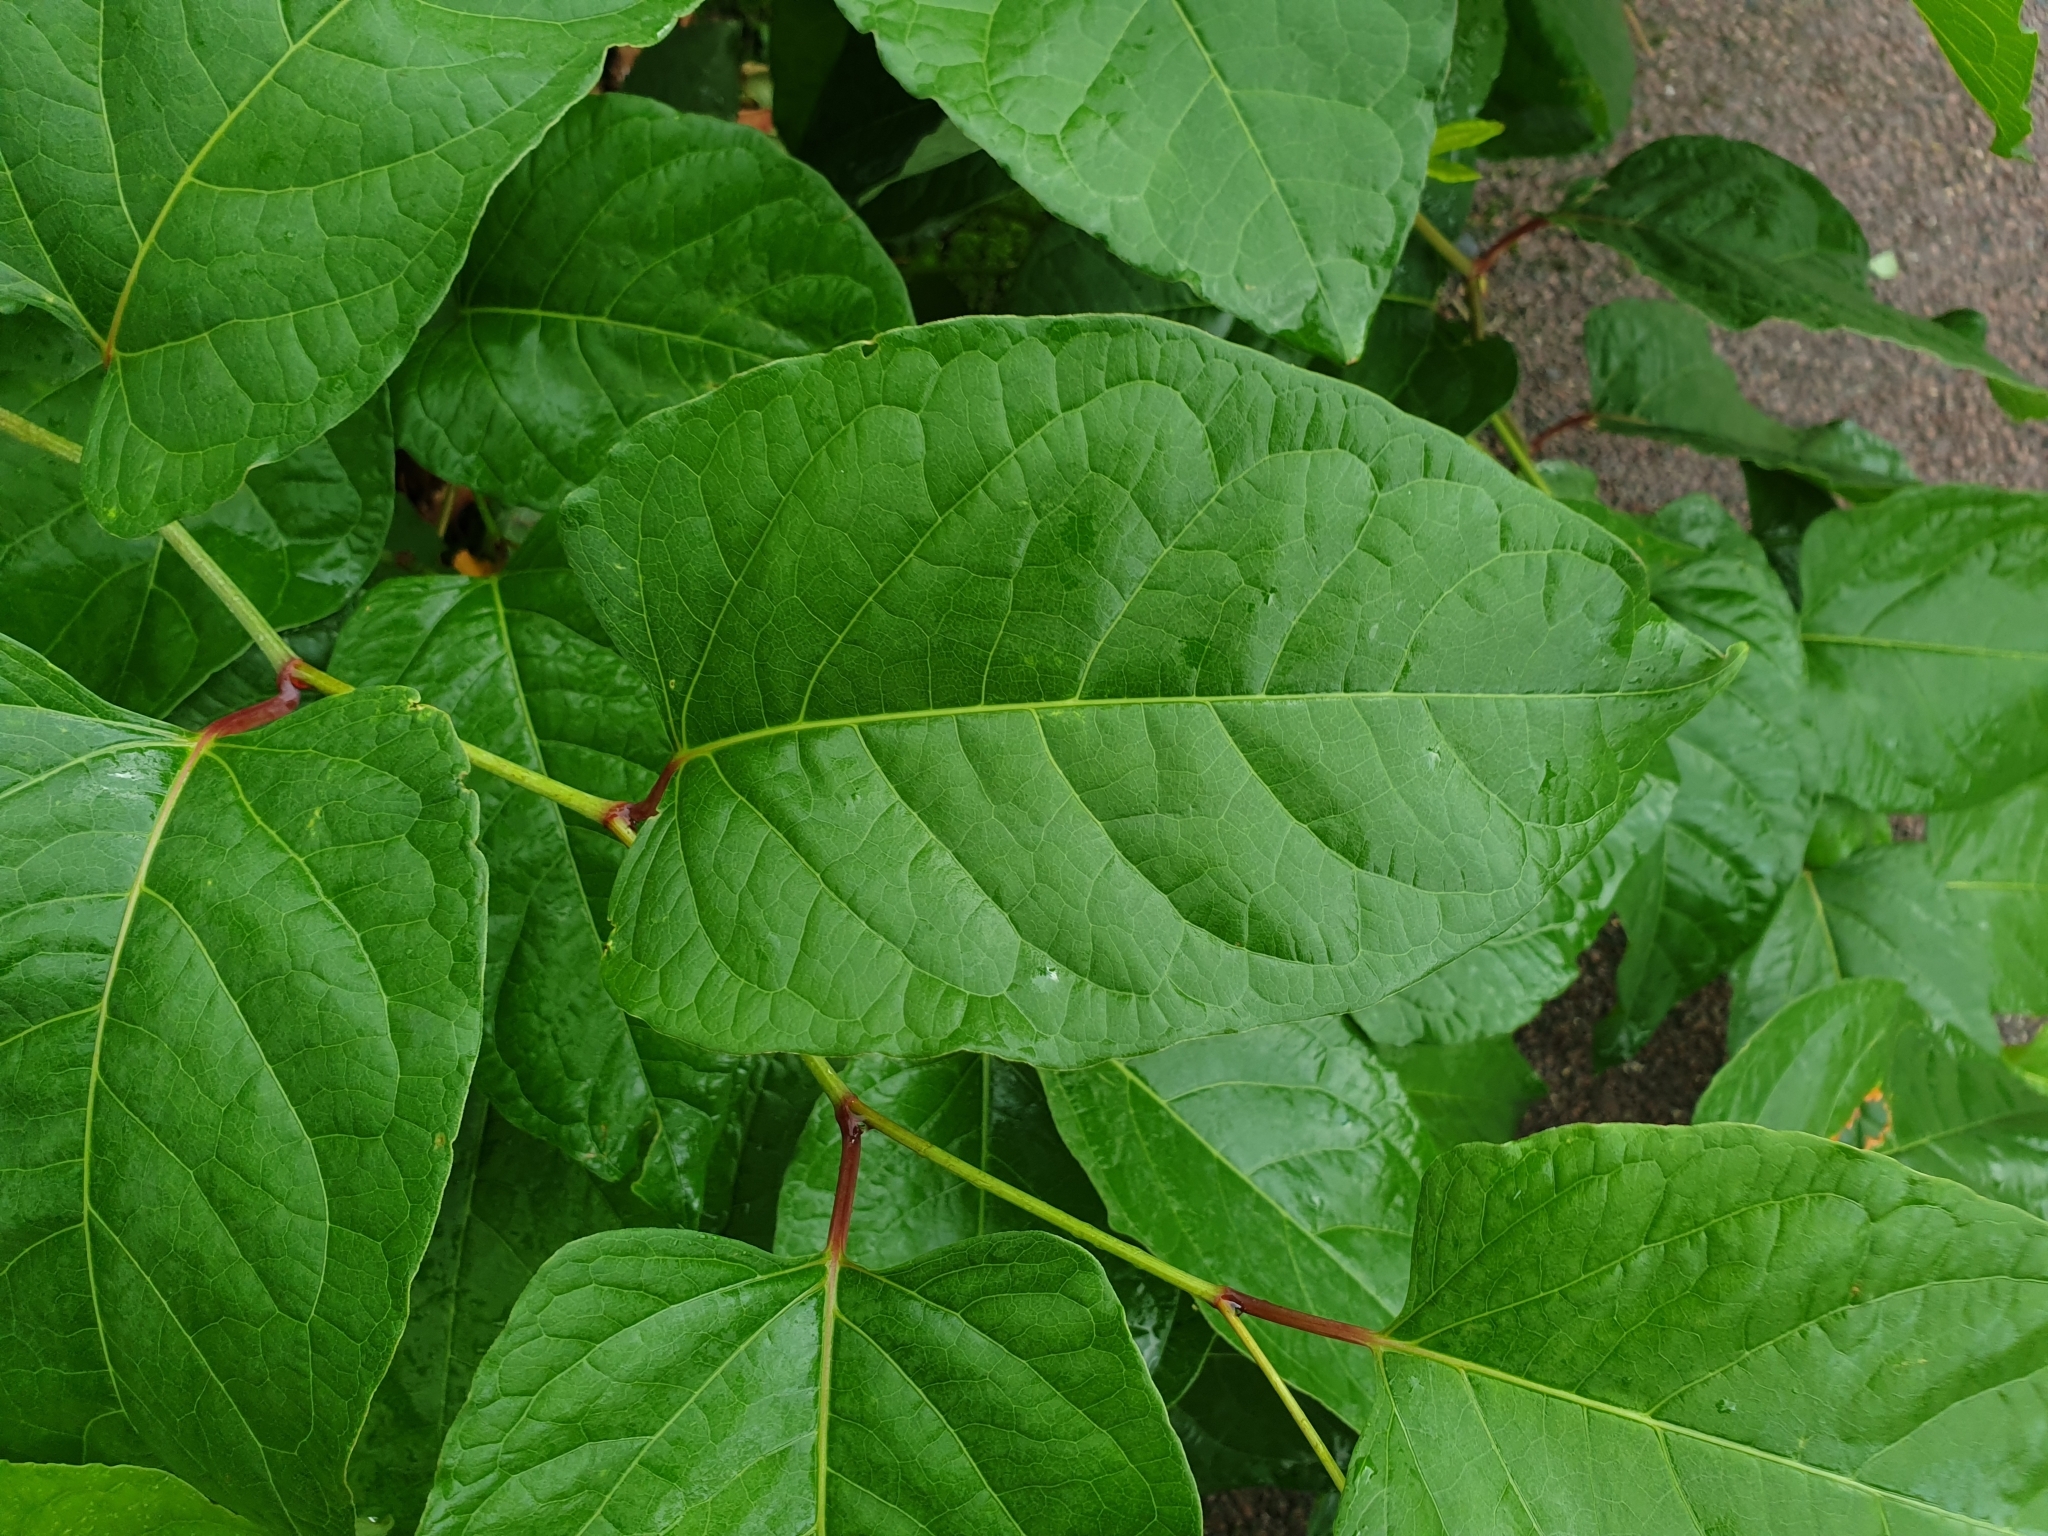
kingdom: Plantae
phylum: Tracheophyta
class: Magnoliopsida
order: Caryophyllales
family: Polygonaceae
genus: Reynoutria
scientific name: Reynoutria bohemica
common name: Bohemian knotweed
